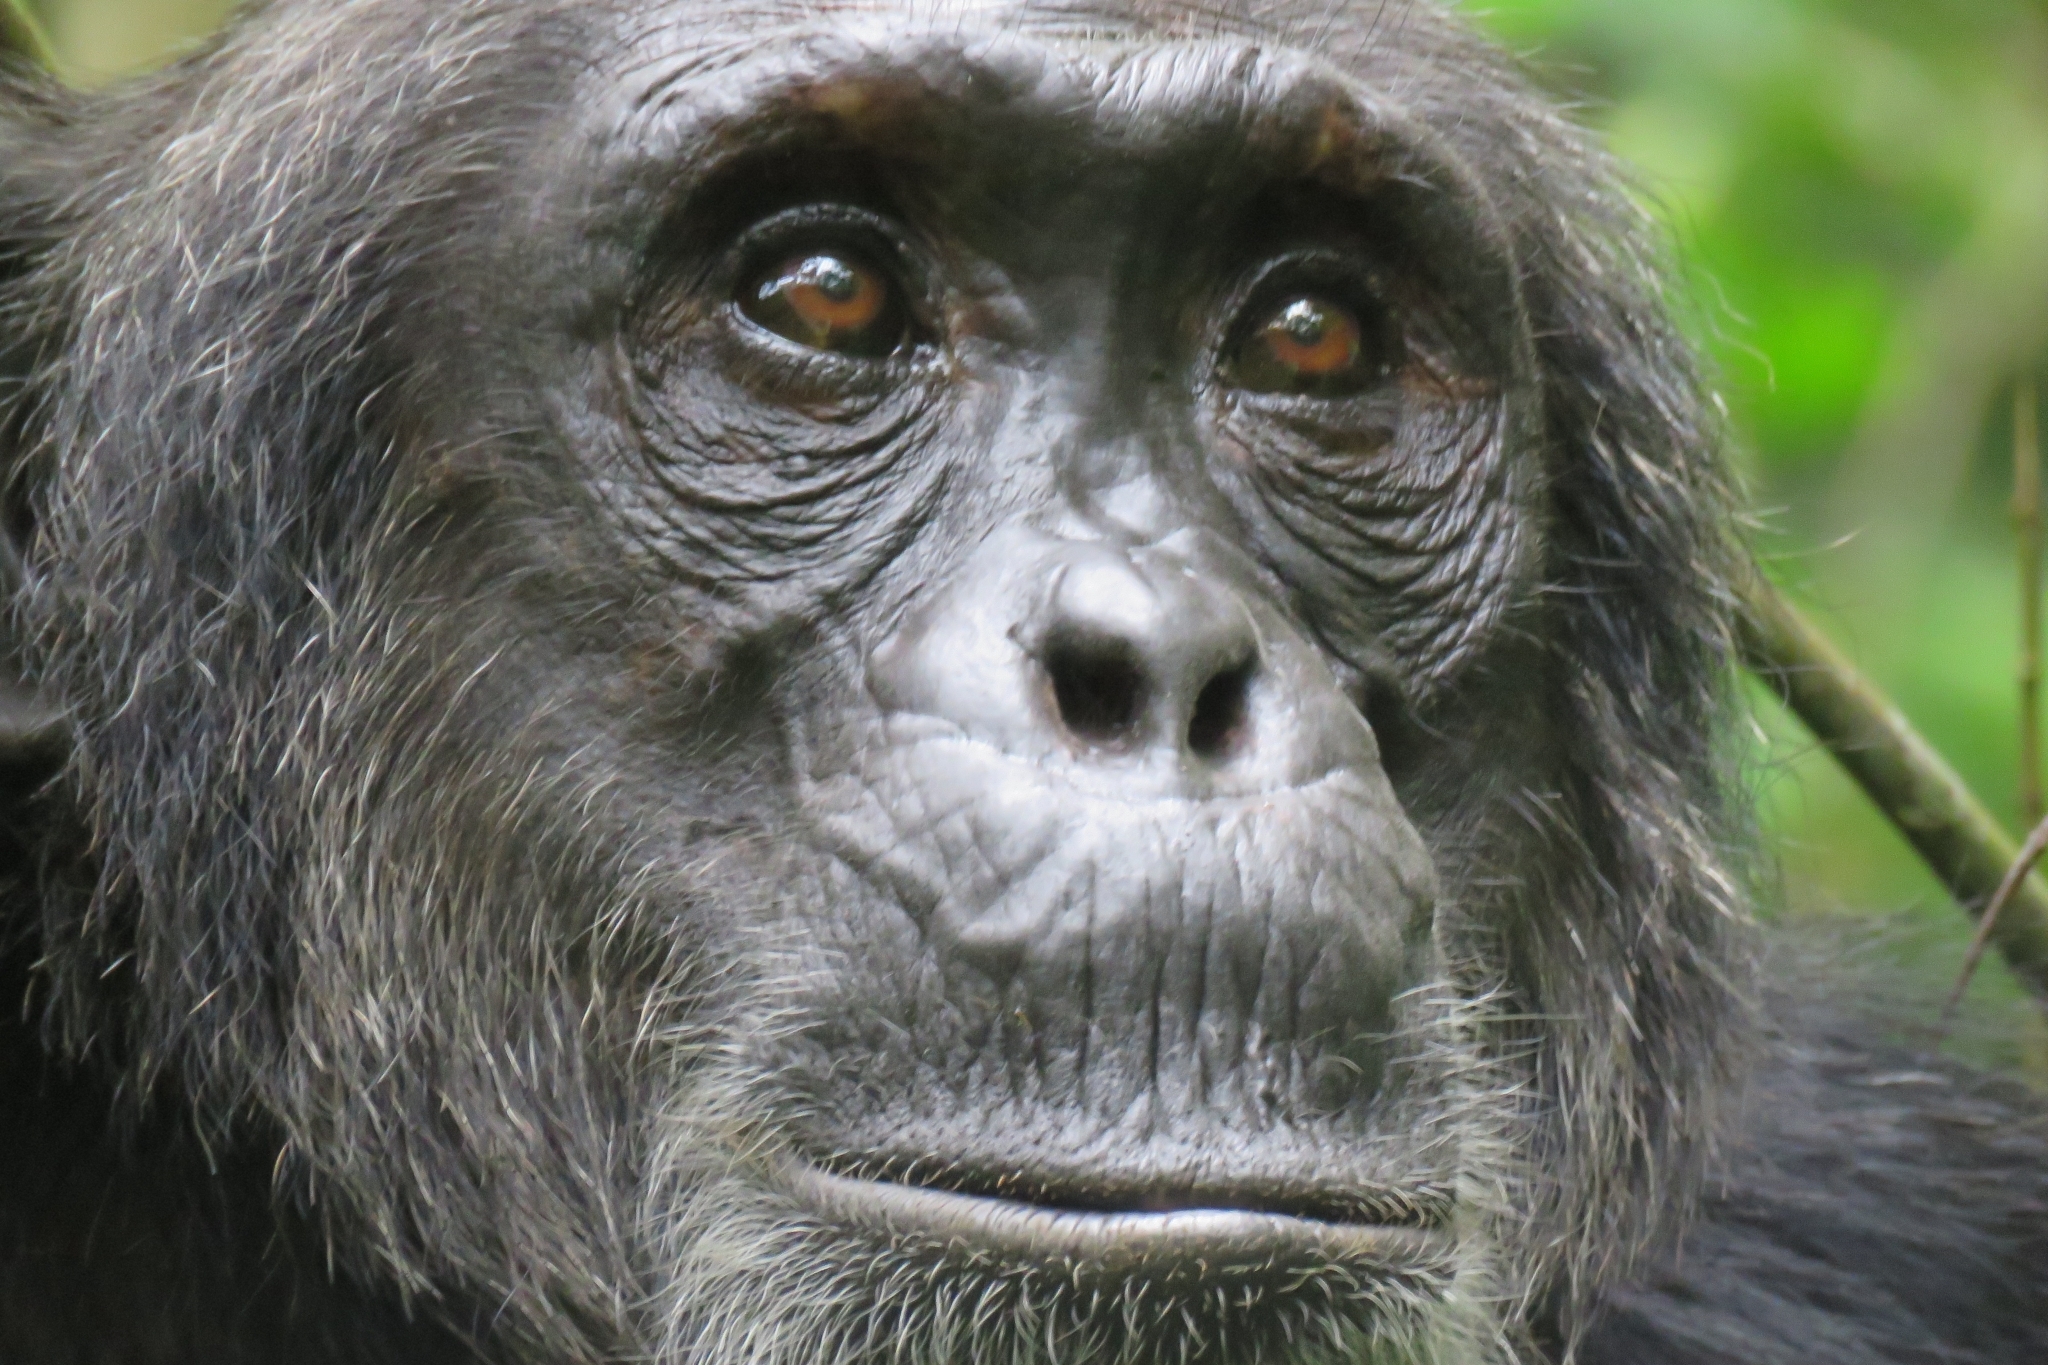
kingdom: Animalia
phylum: Chordata
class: Mammalia
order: Primates
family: Hominidae
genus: Pan
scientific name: Pan troglodytes
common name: Chimpanzee
